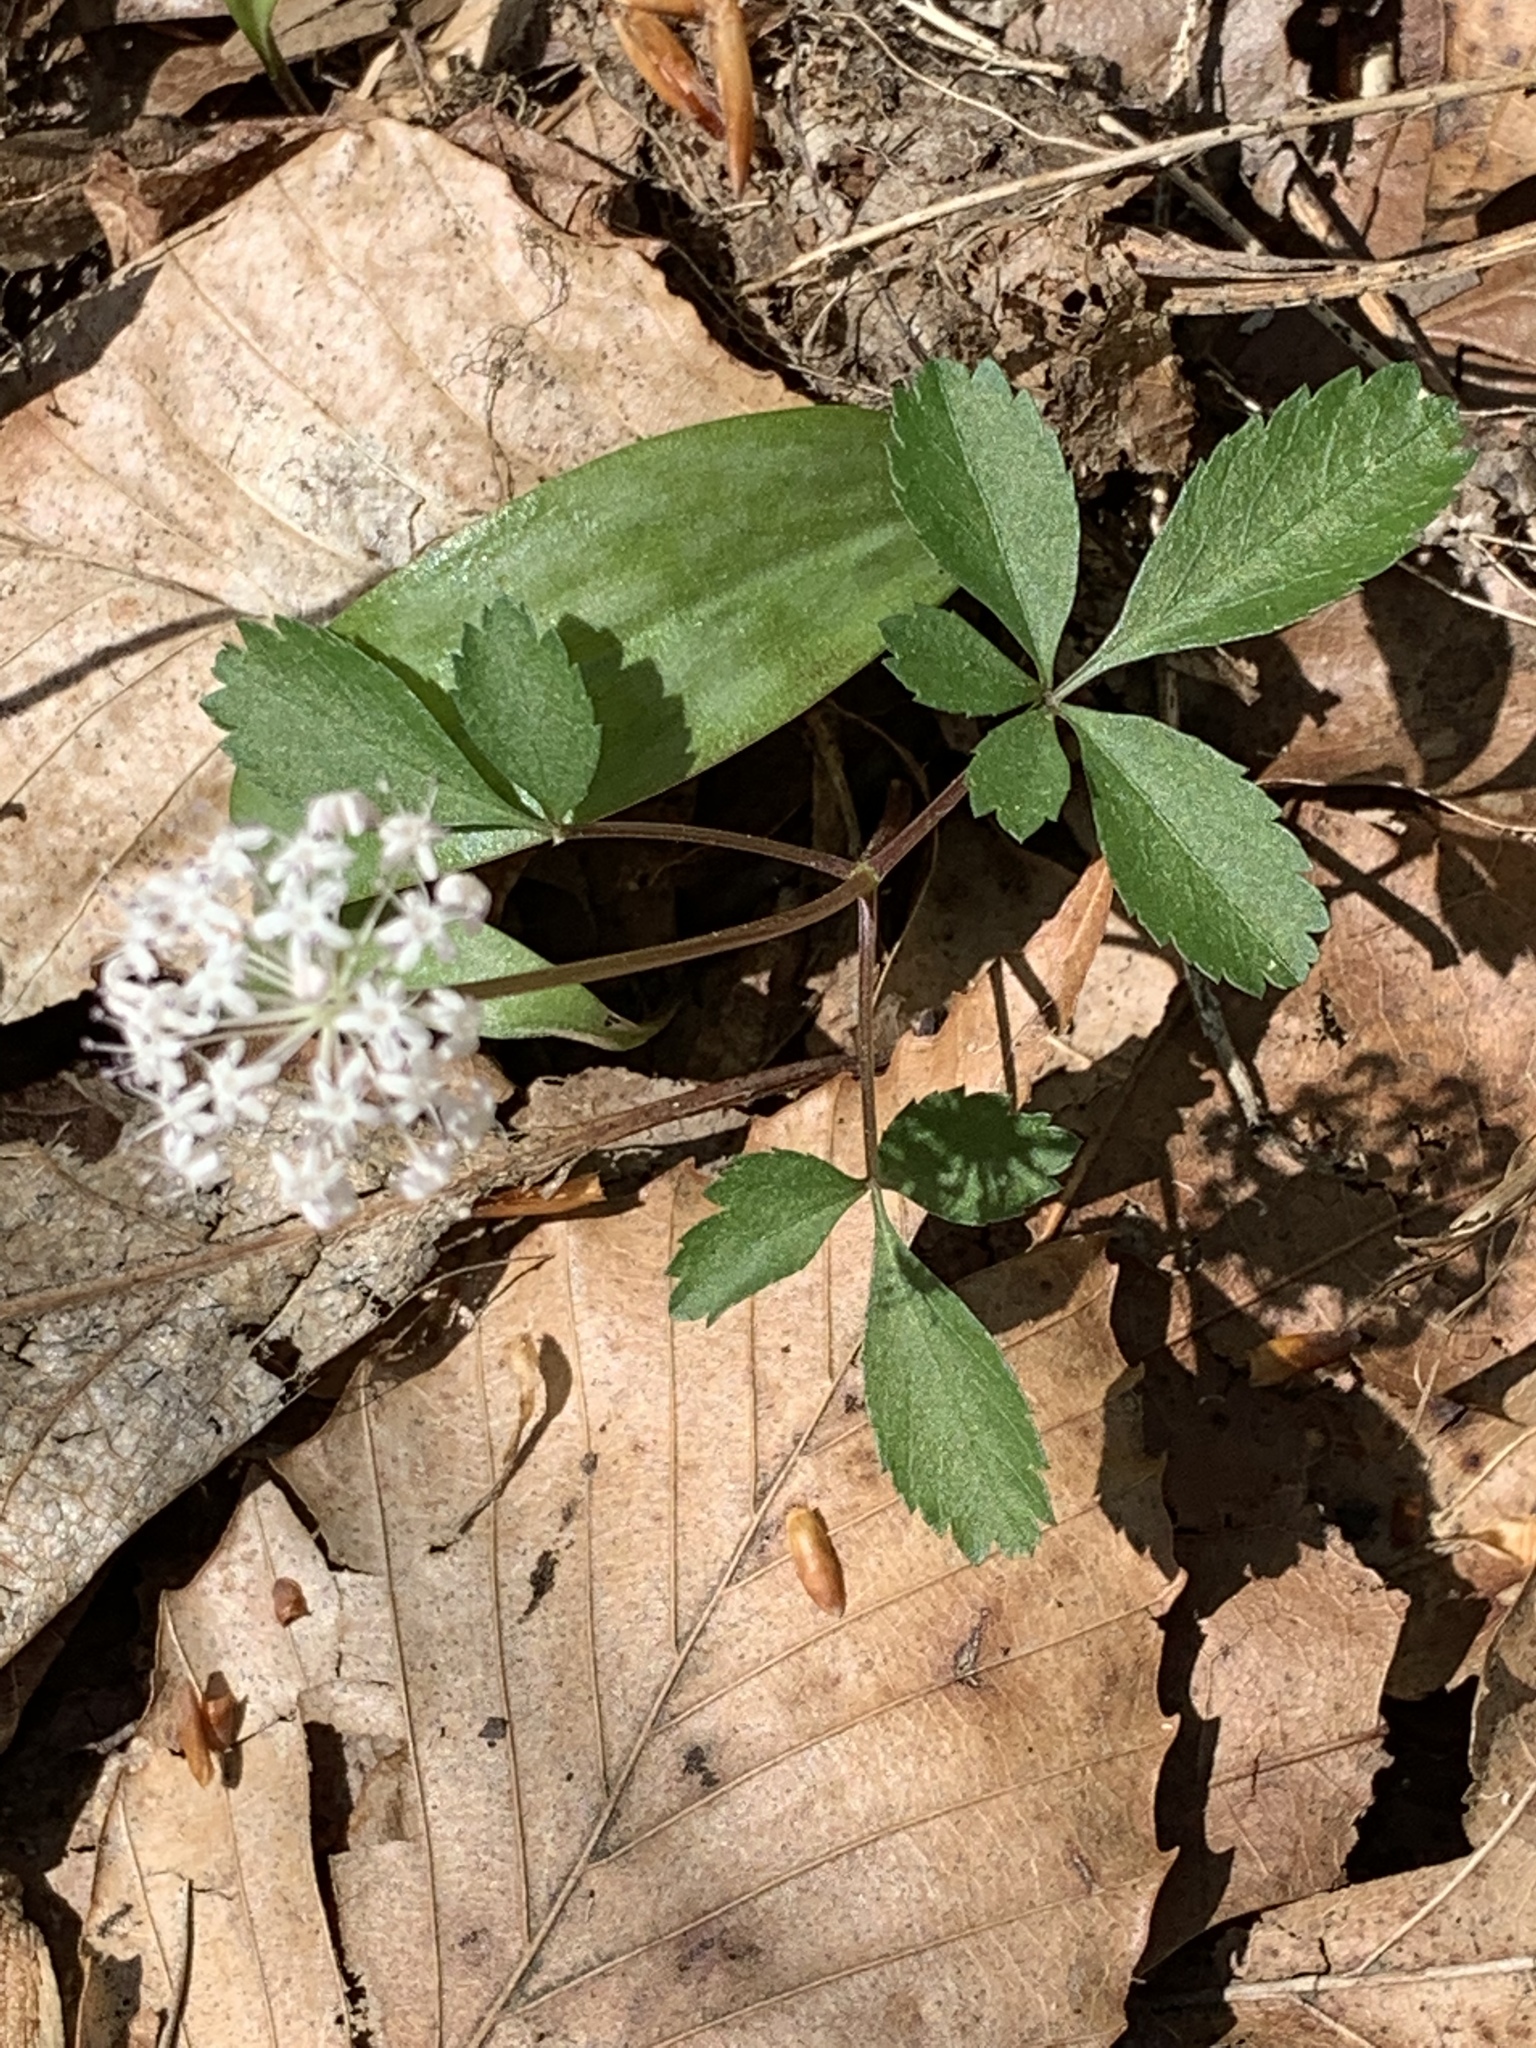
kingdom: Plantae
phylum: Tracheophyta
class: Magnoliopsida
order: Apiales
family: Araliaceae
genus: Panax
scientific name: Panax trifolius
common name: Dwarf ginseng
